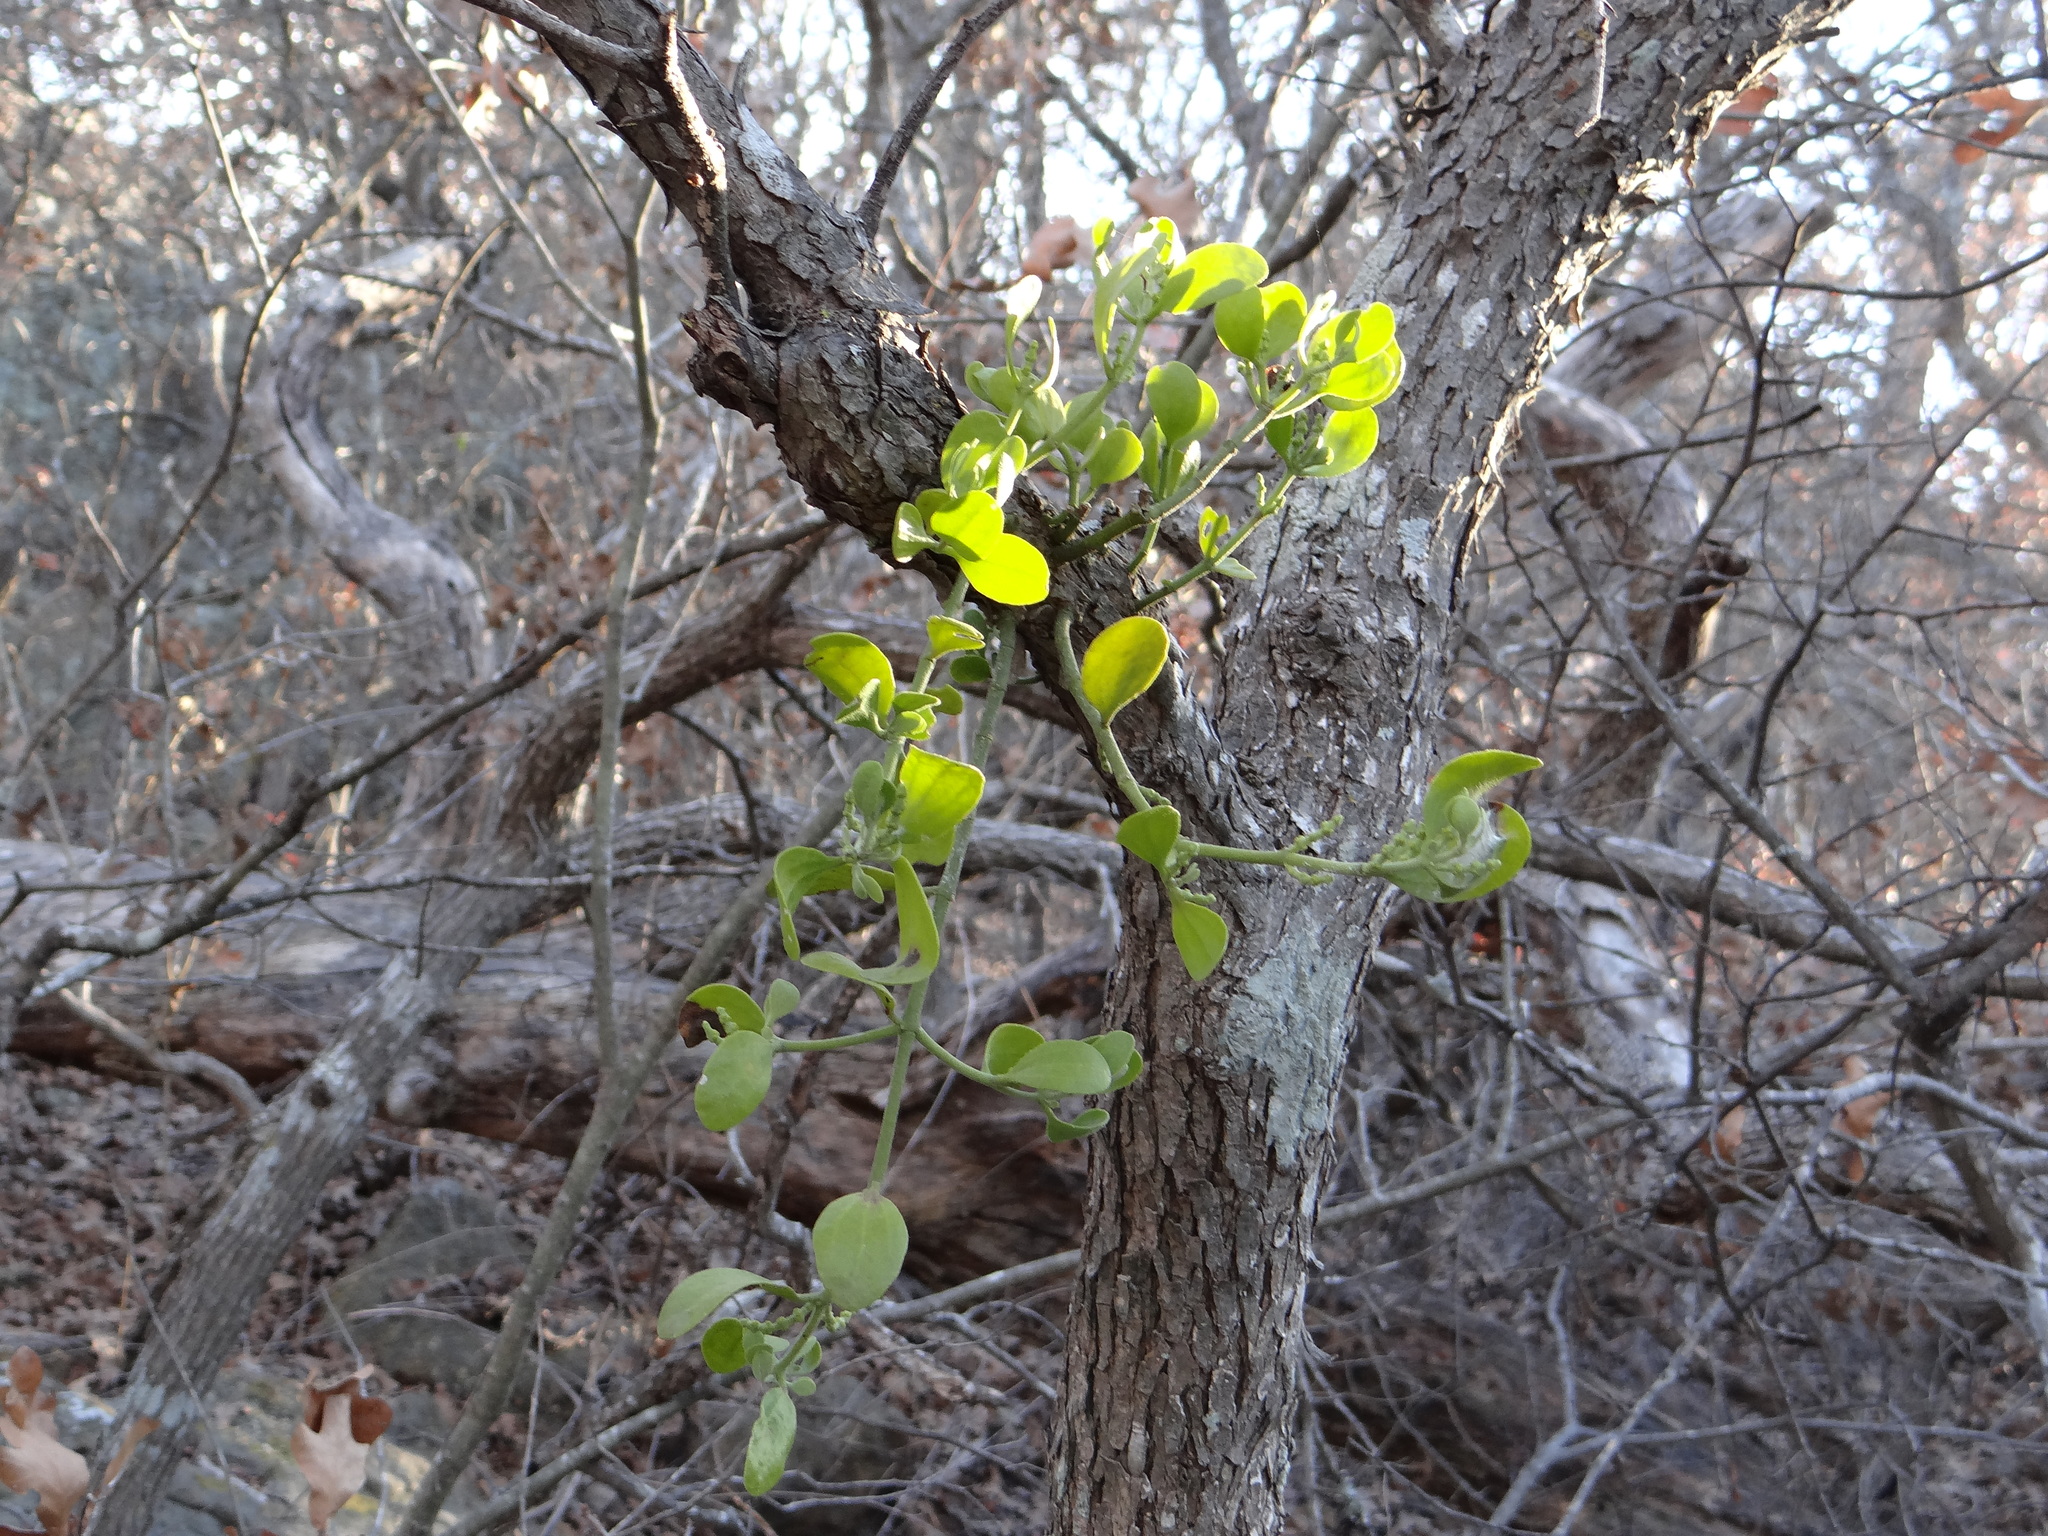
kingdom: Plantae
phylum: Tracheophyta
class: Magnoliopsida
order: Santalales
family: Viscaceae
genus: Phoradendron
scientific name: Phoradendron leucarpum
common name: Pacific mistletoe
